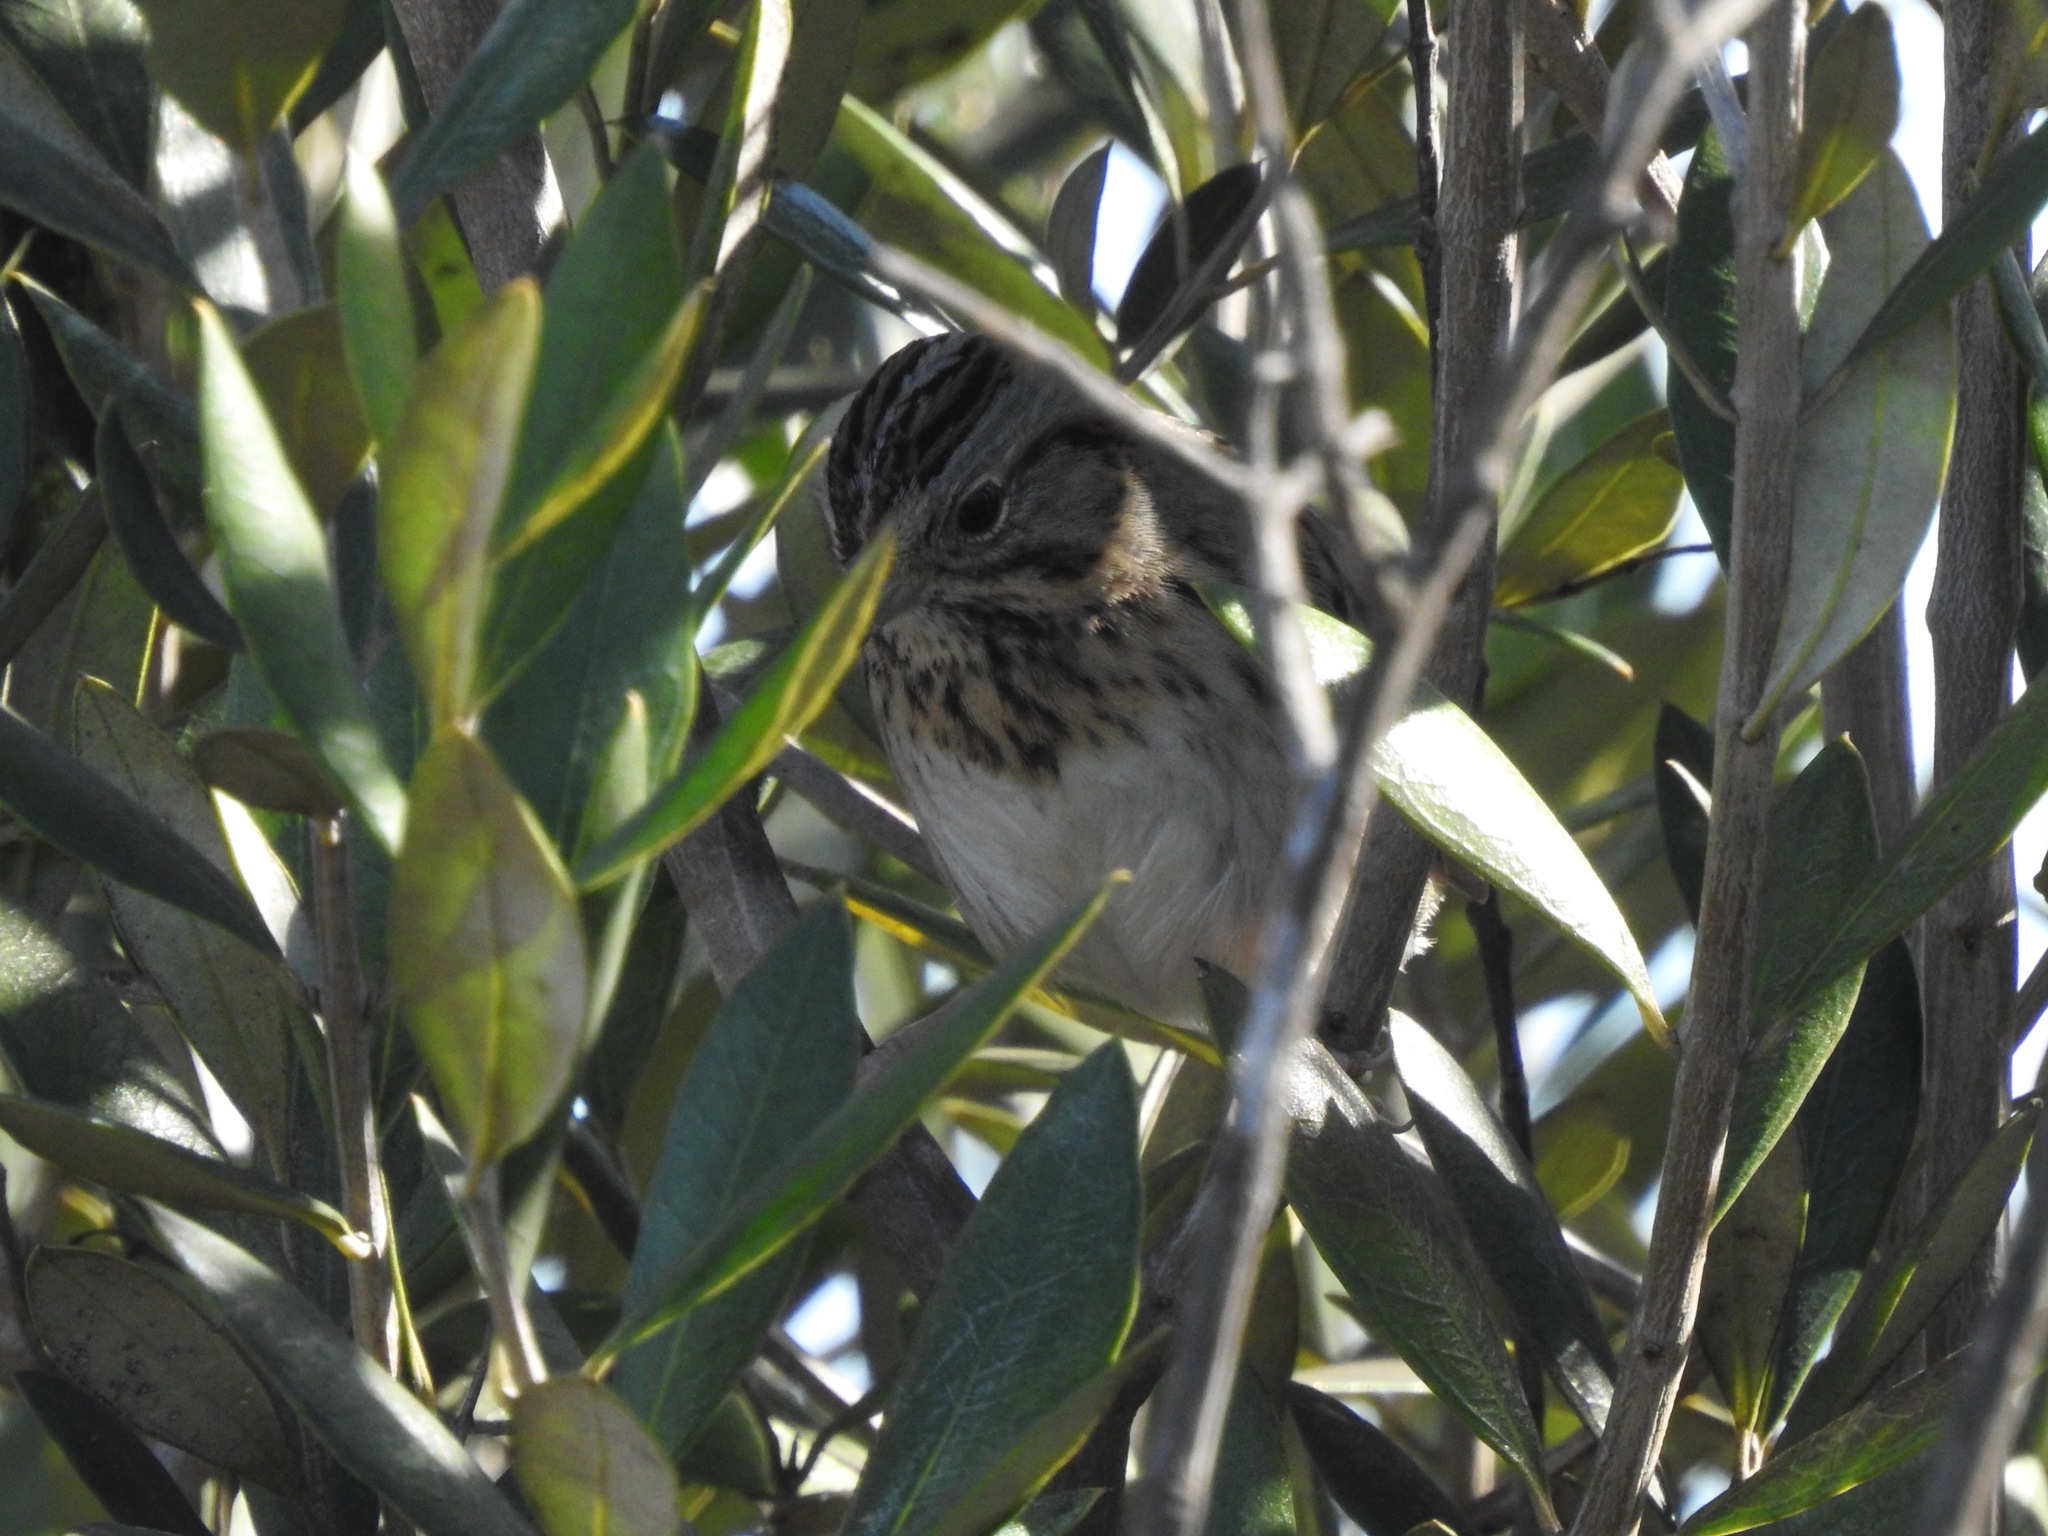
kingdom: Animalia
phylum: Chordata
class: Aves
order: Passeriformes
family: Passerellidae
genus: Melospiza
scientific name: Melospiza lincolnii
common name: Lincoln's sparrow
